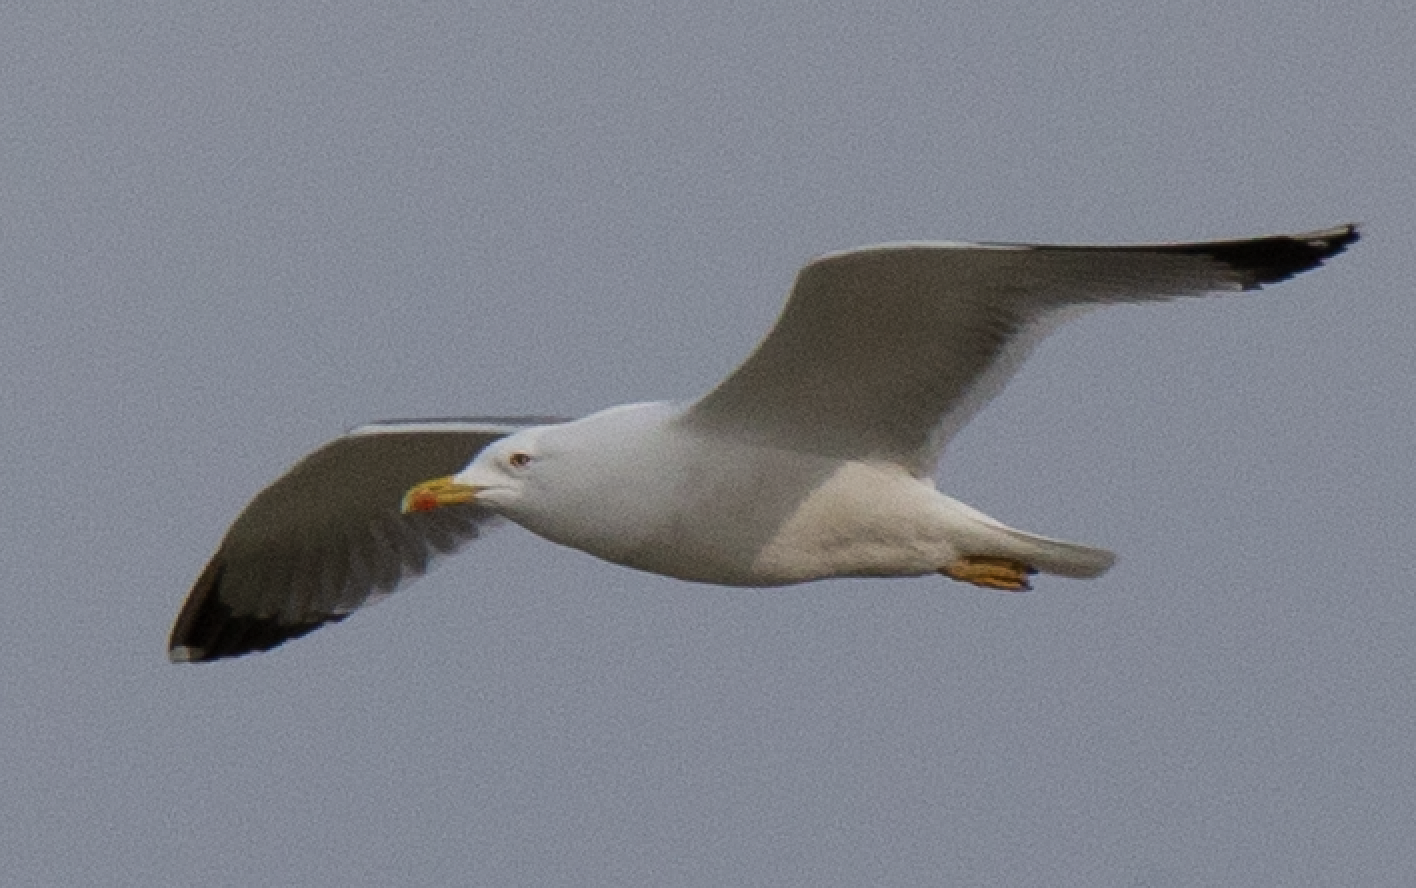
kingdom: Animalia
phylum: Chordata
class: Aves
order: Charadriiformes
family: Laridae
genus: Larus
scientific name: Larus michahellis
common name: Yellow-legged gull
